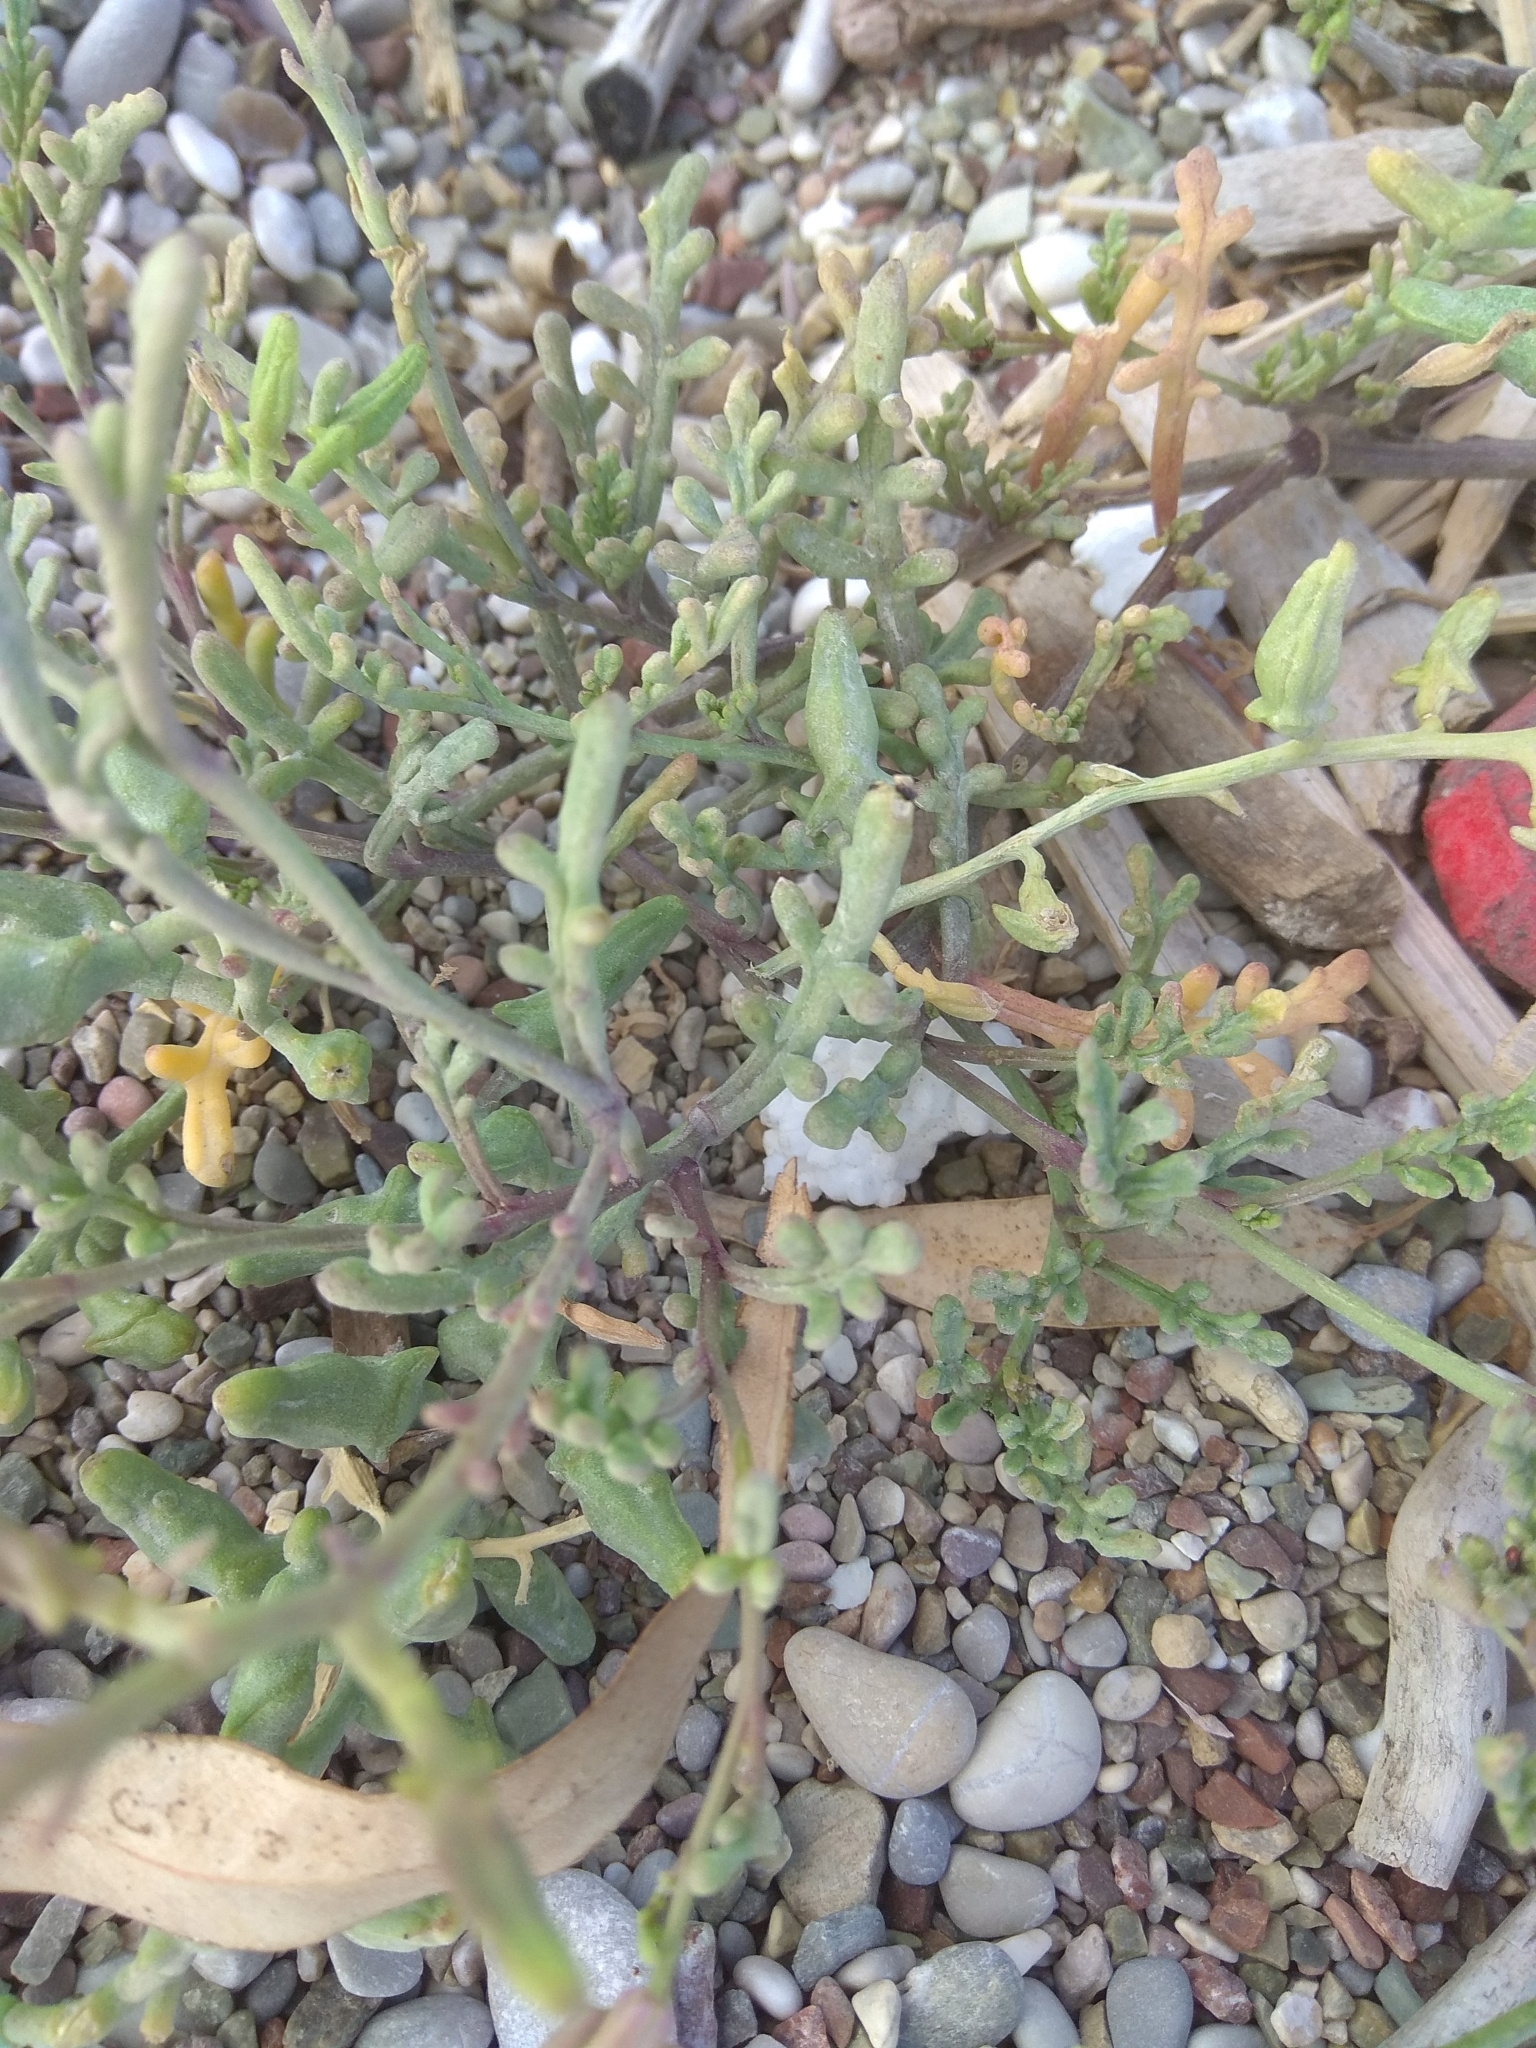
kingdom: Plantae
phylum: Tracheophyta
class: Magnoliopsida
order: Brassicales
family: Brassicaceae
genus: Cakile
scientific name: Cakile maritima
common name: Sea rocket
